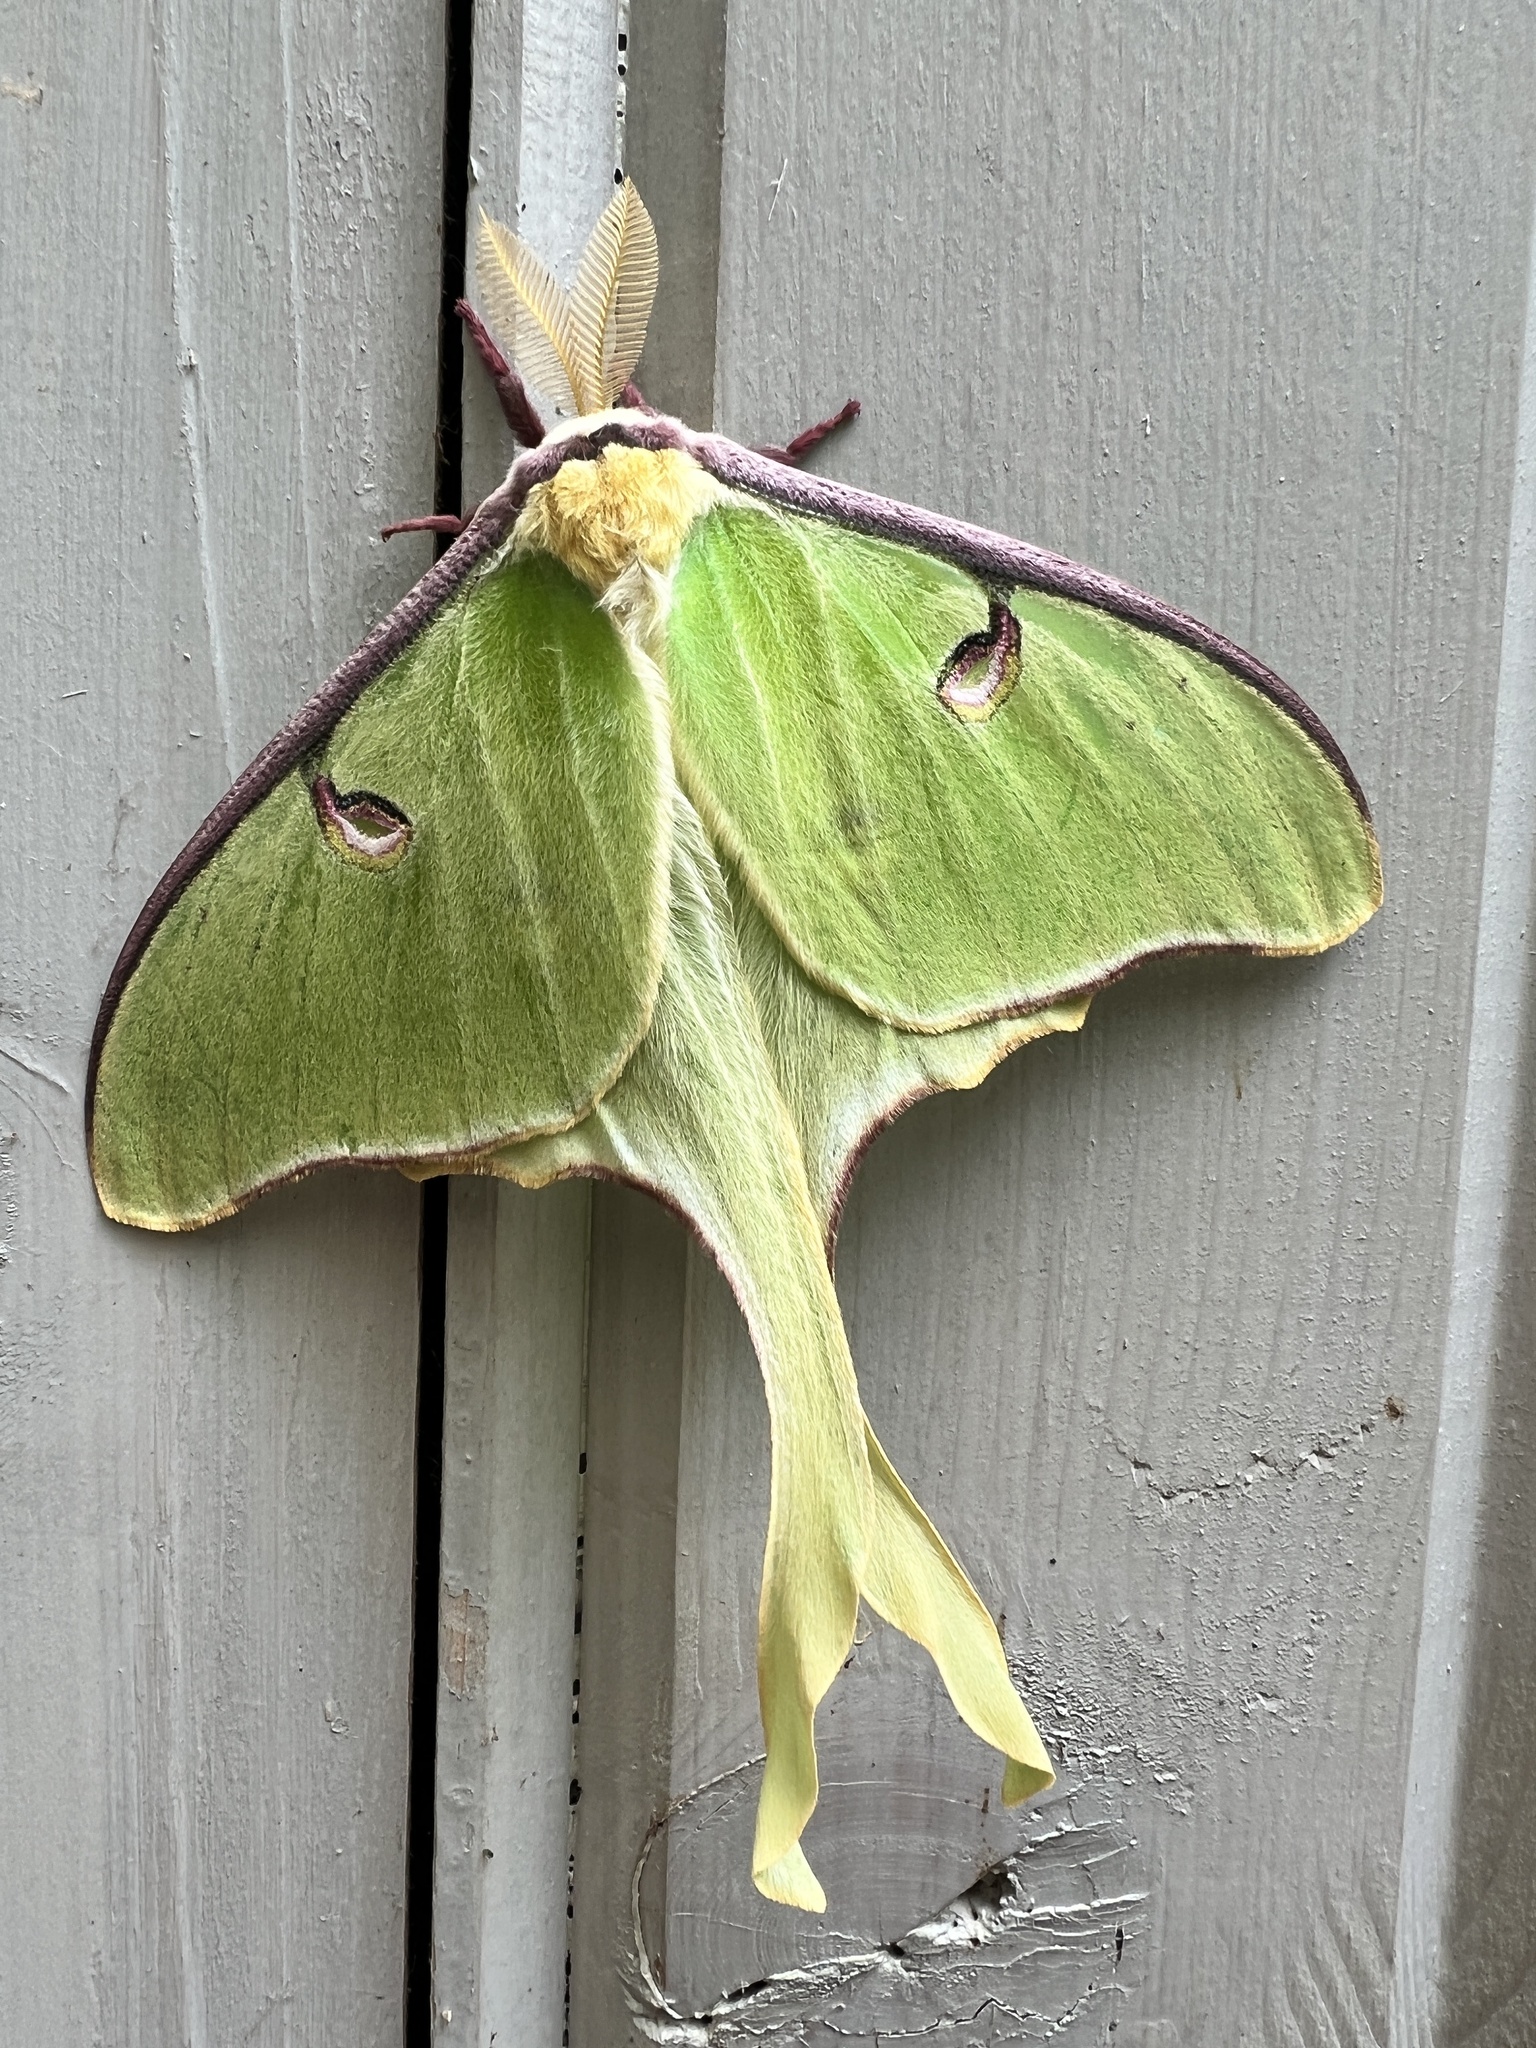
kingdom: Animalia
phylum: Arthropoda
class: Insecta
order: Lepidoptera
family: Saturniidae
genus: Actias
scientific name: Actias luna
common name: Luna moth
